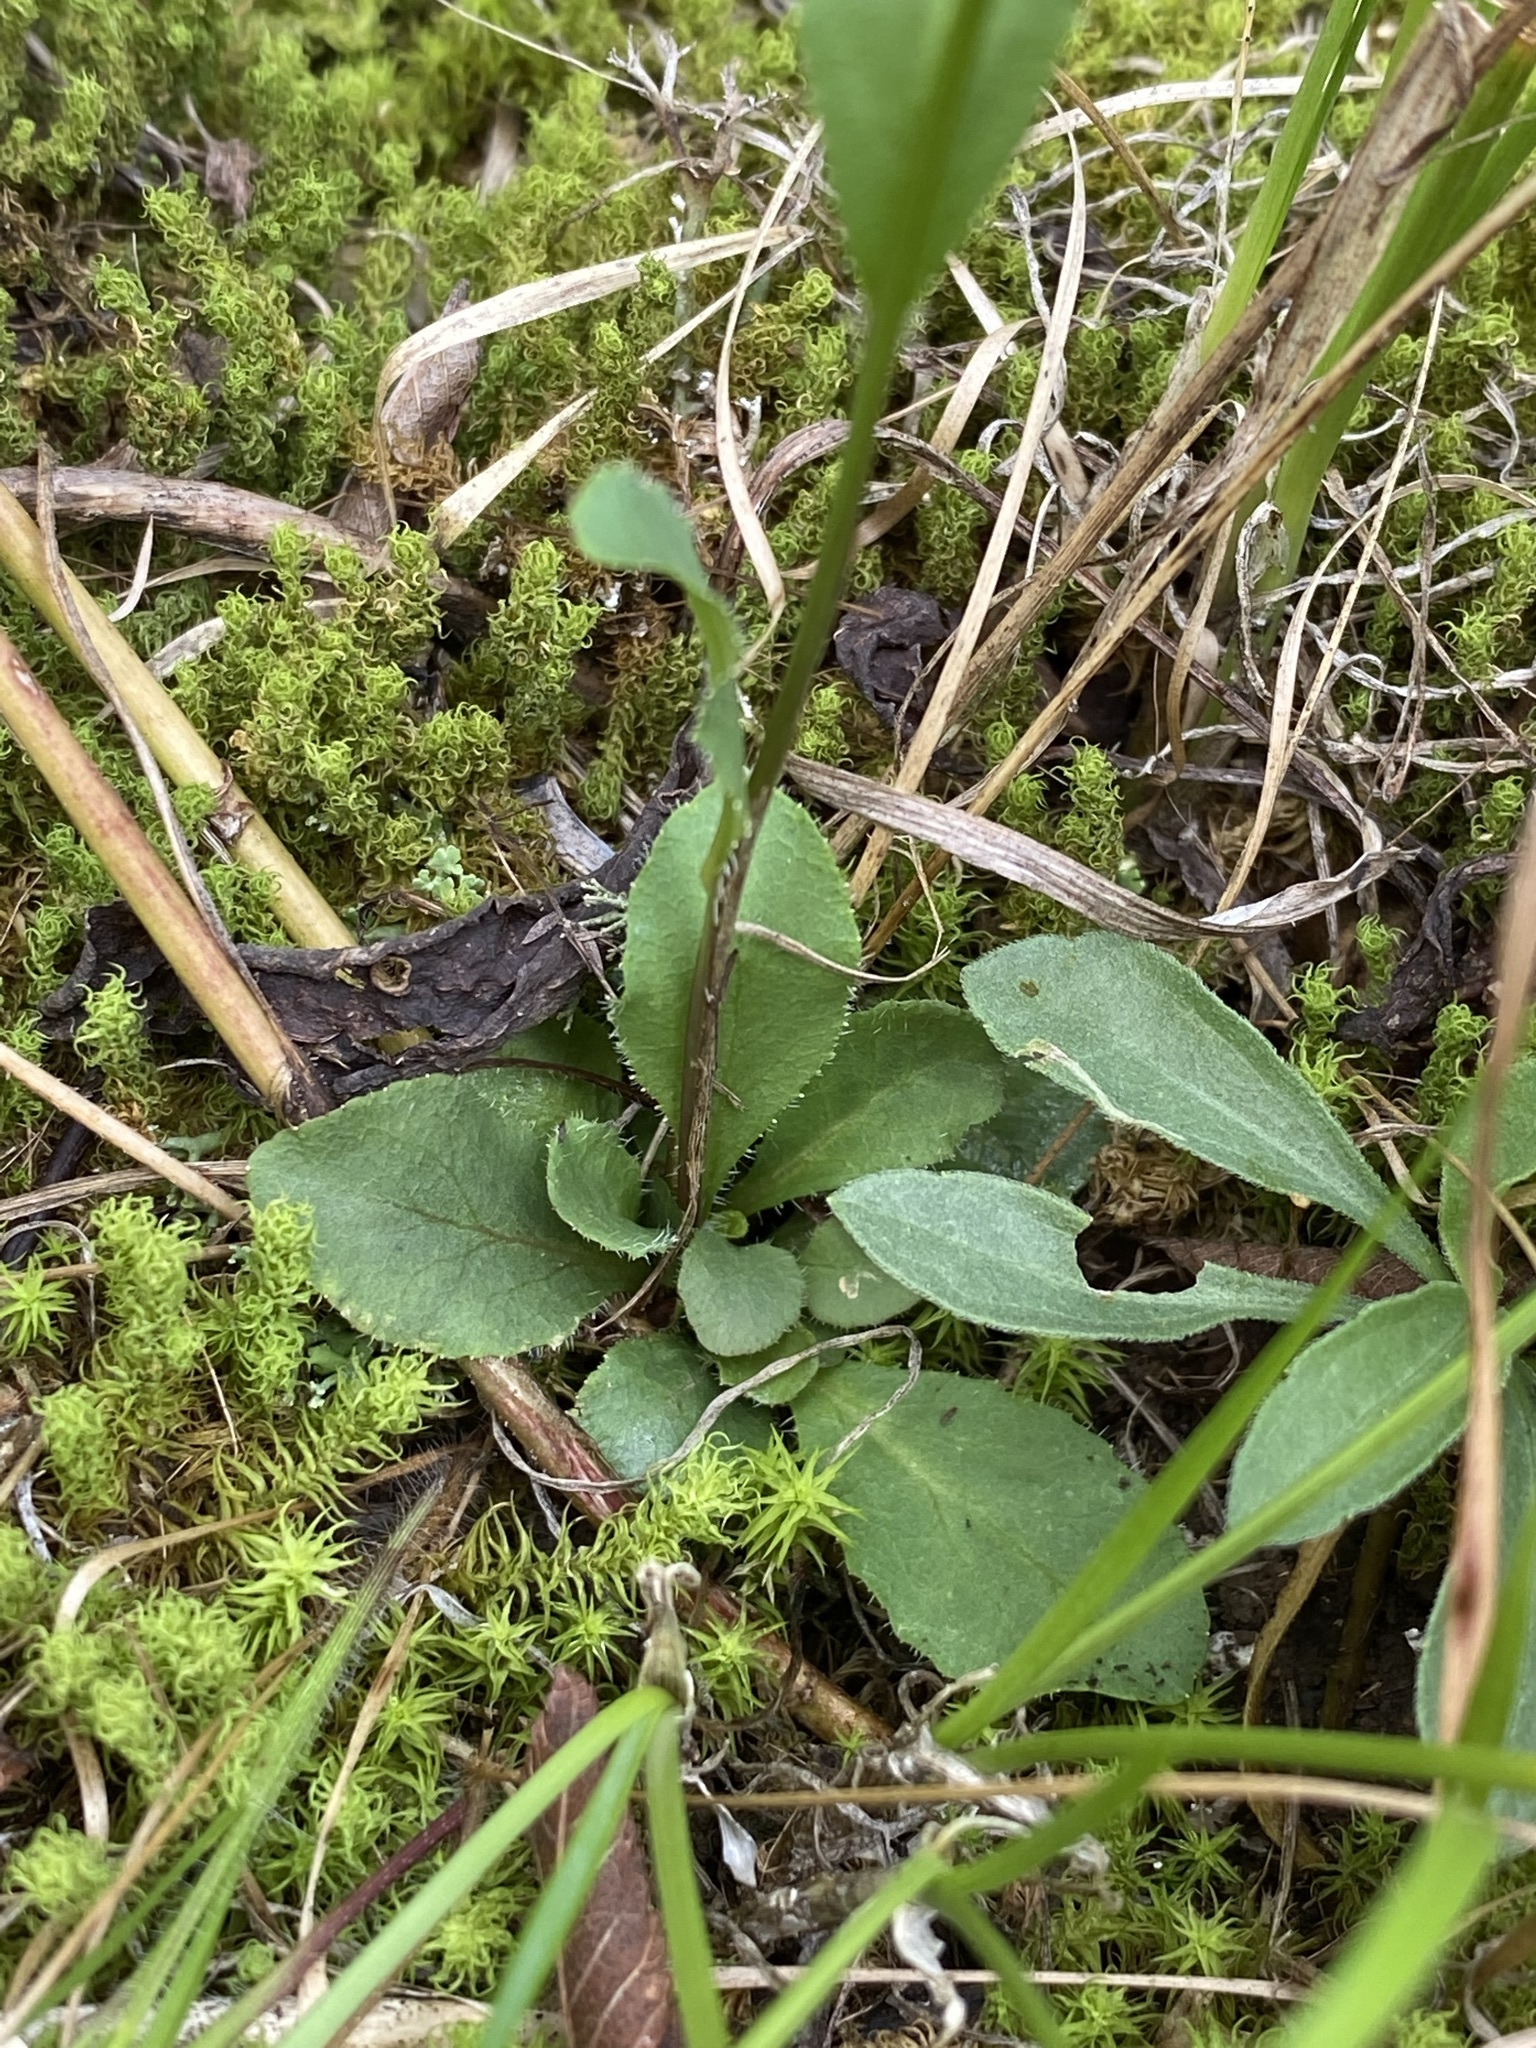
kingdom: Plantae
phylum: Tracheophyta
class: Magnoliopsida
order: Asterales
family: Campanulaceae
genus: Lobelia
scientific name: Lobelia gattingeri
